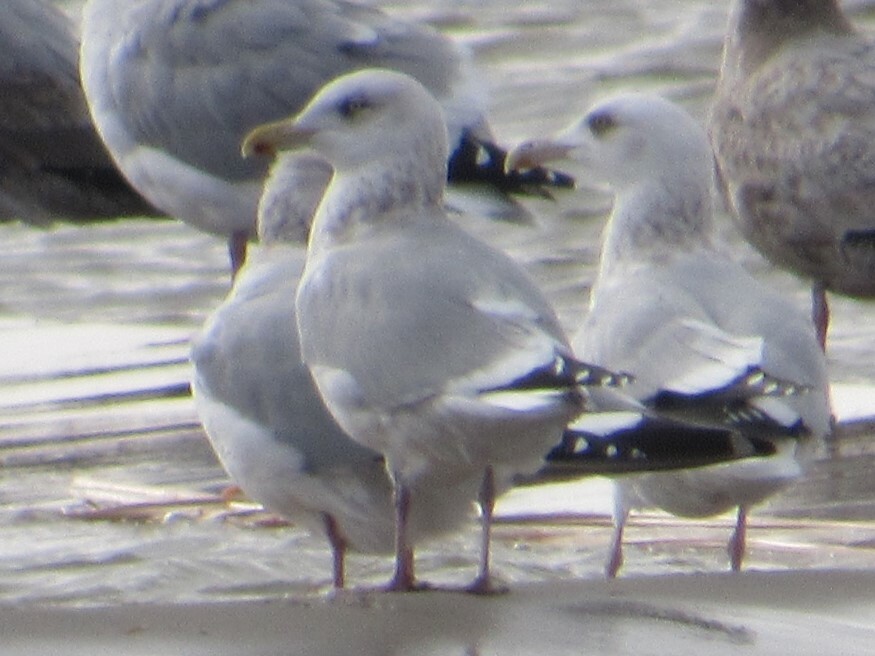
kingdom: Animalia
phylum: Chordata
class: Aves
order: Charadriiformes
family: Laridae
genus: Larus
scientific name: Larus argentatus
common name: Herring gull
